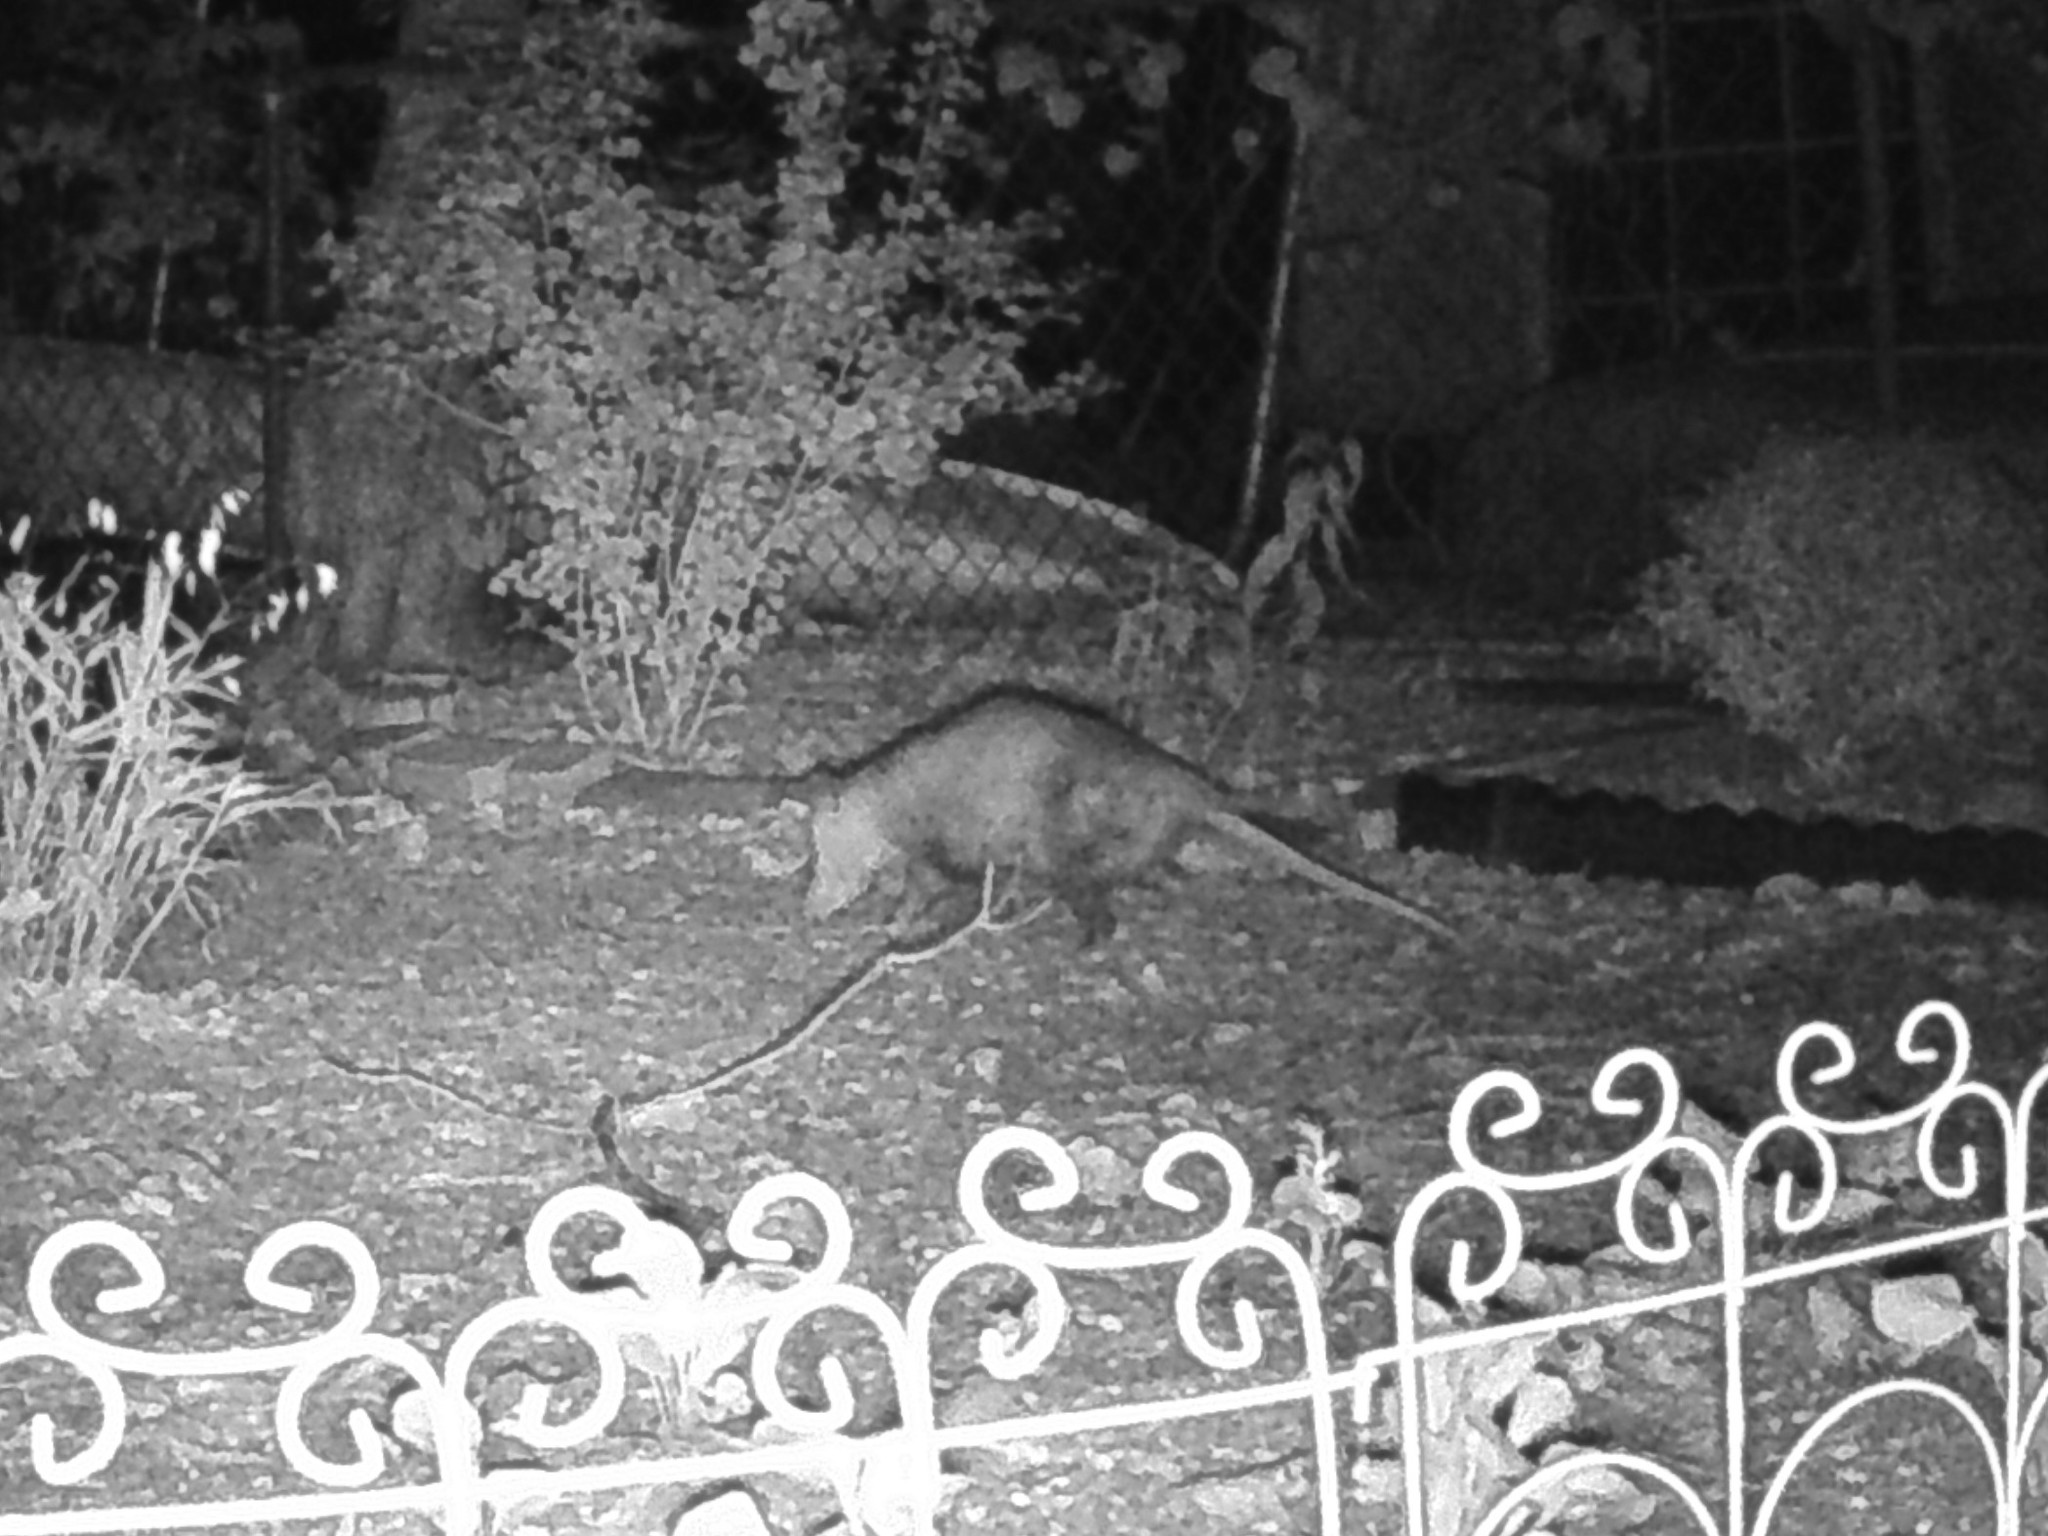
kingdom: Animalia
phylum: Chordata
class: Mammalia
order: Didelphimorphia
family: Didelphidae
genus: Didelphis
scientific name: Didelphis virginiana
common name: Virginia opossum
